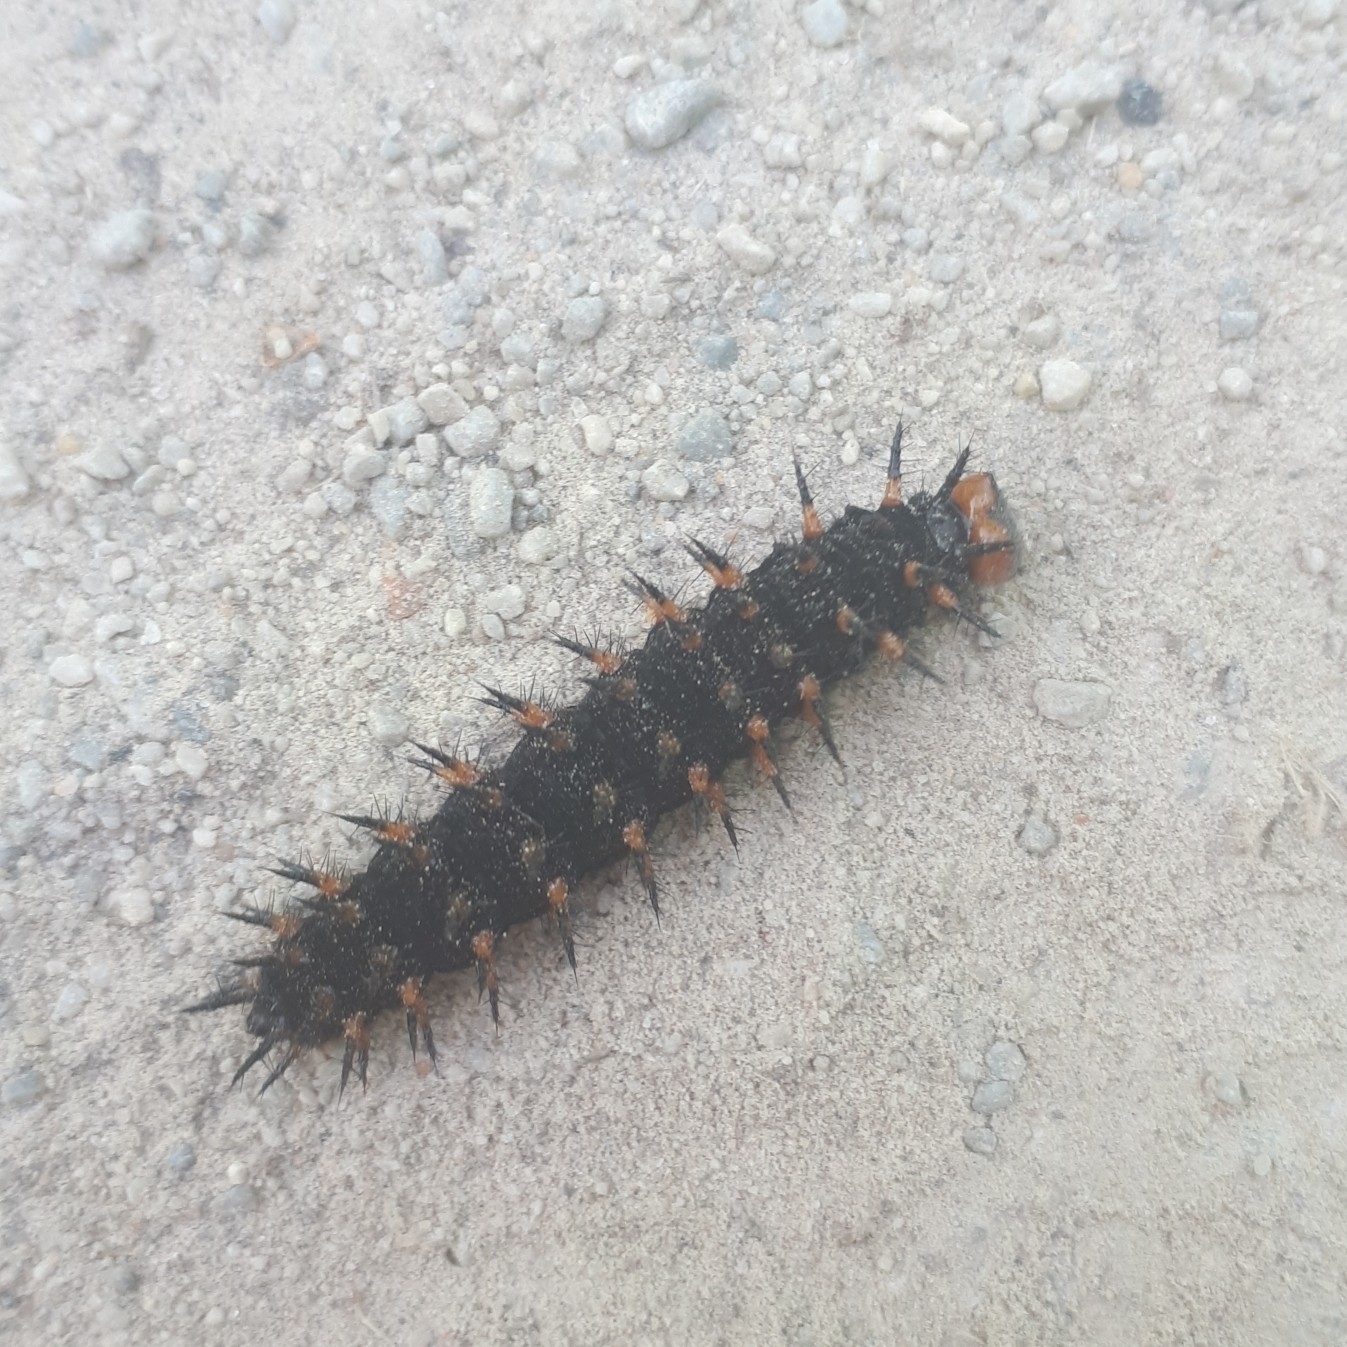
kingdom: Animalia
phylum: Arthropoda
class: Insecta
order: Lepidoptera
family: Nymphalidae
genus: Speyeria
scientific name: Speyeria cybele
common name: Great spangled fritillary
